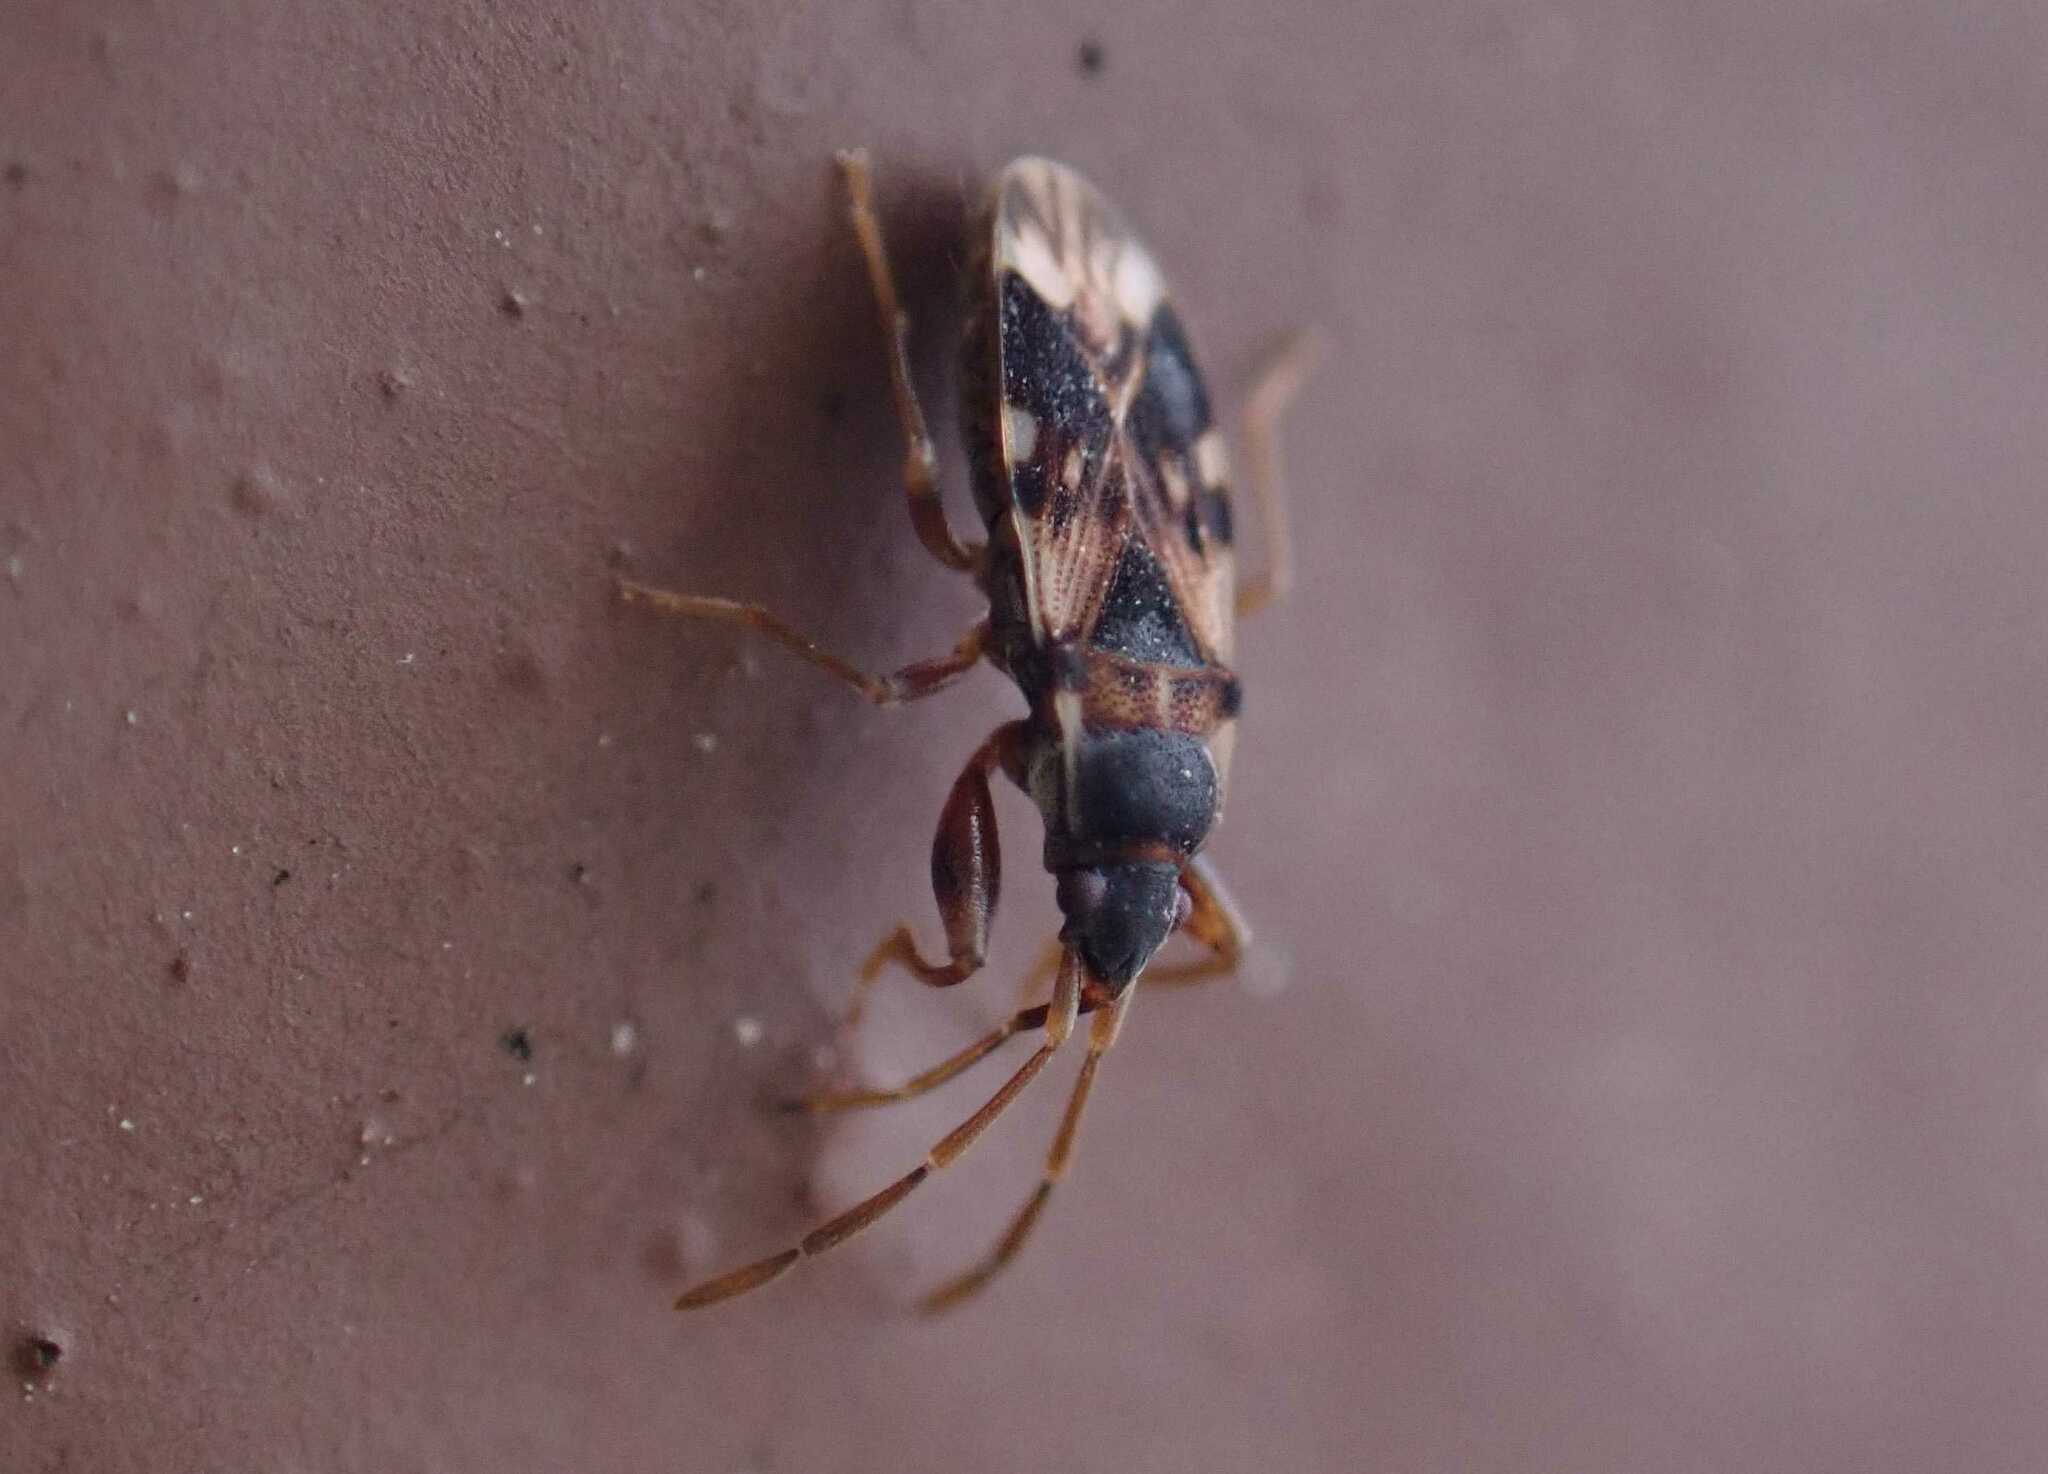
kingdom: Animalia
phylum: Arthropoda
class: Insecta
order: Hemiptera
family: Rhyparochromidae
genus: Scolopostethus
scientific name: Scolopostethus pictus
